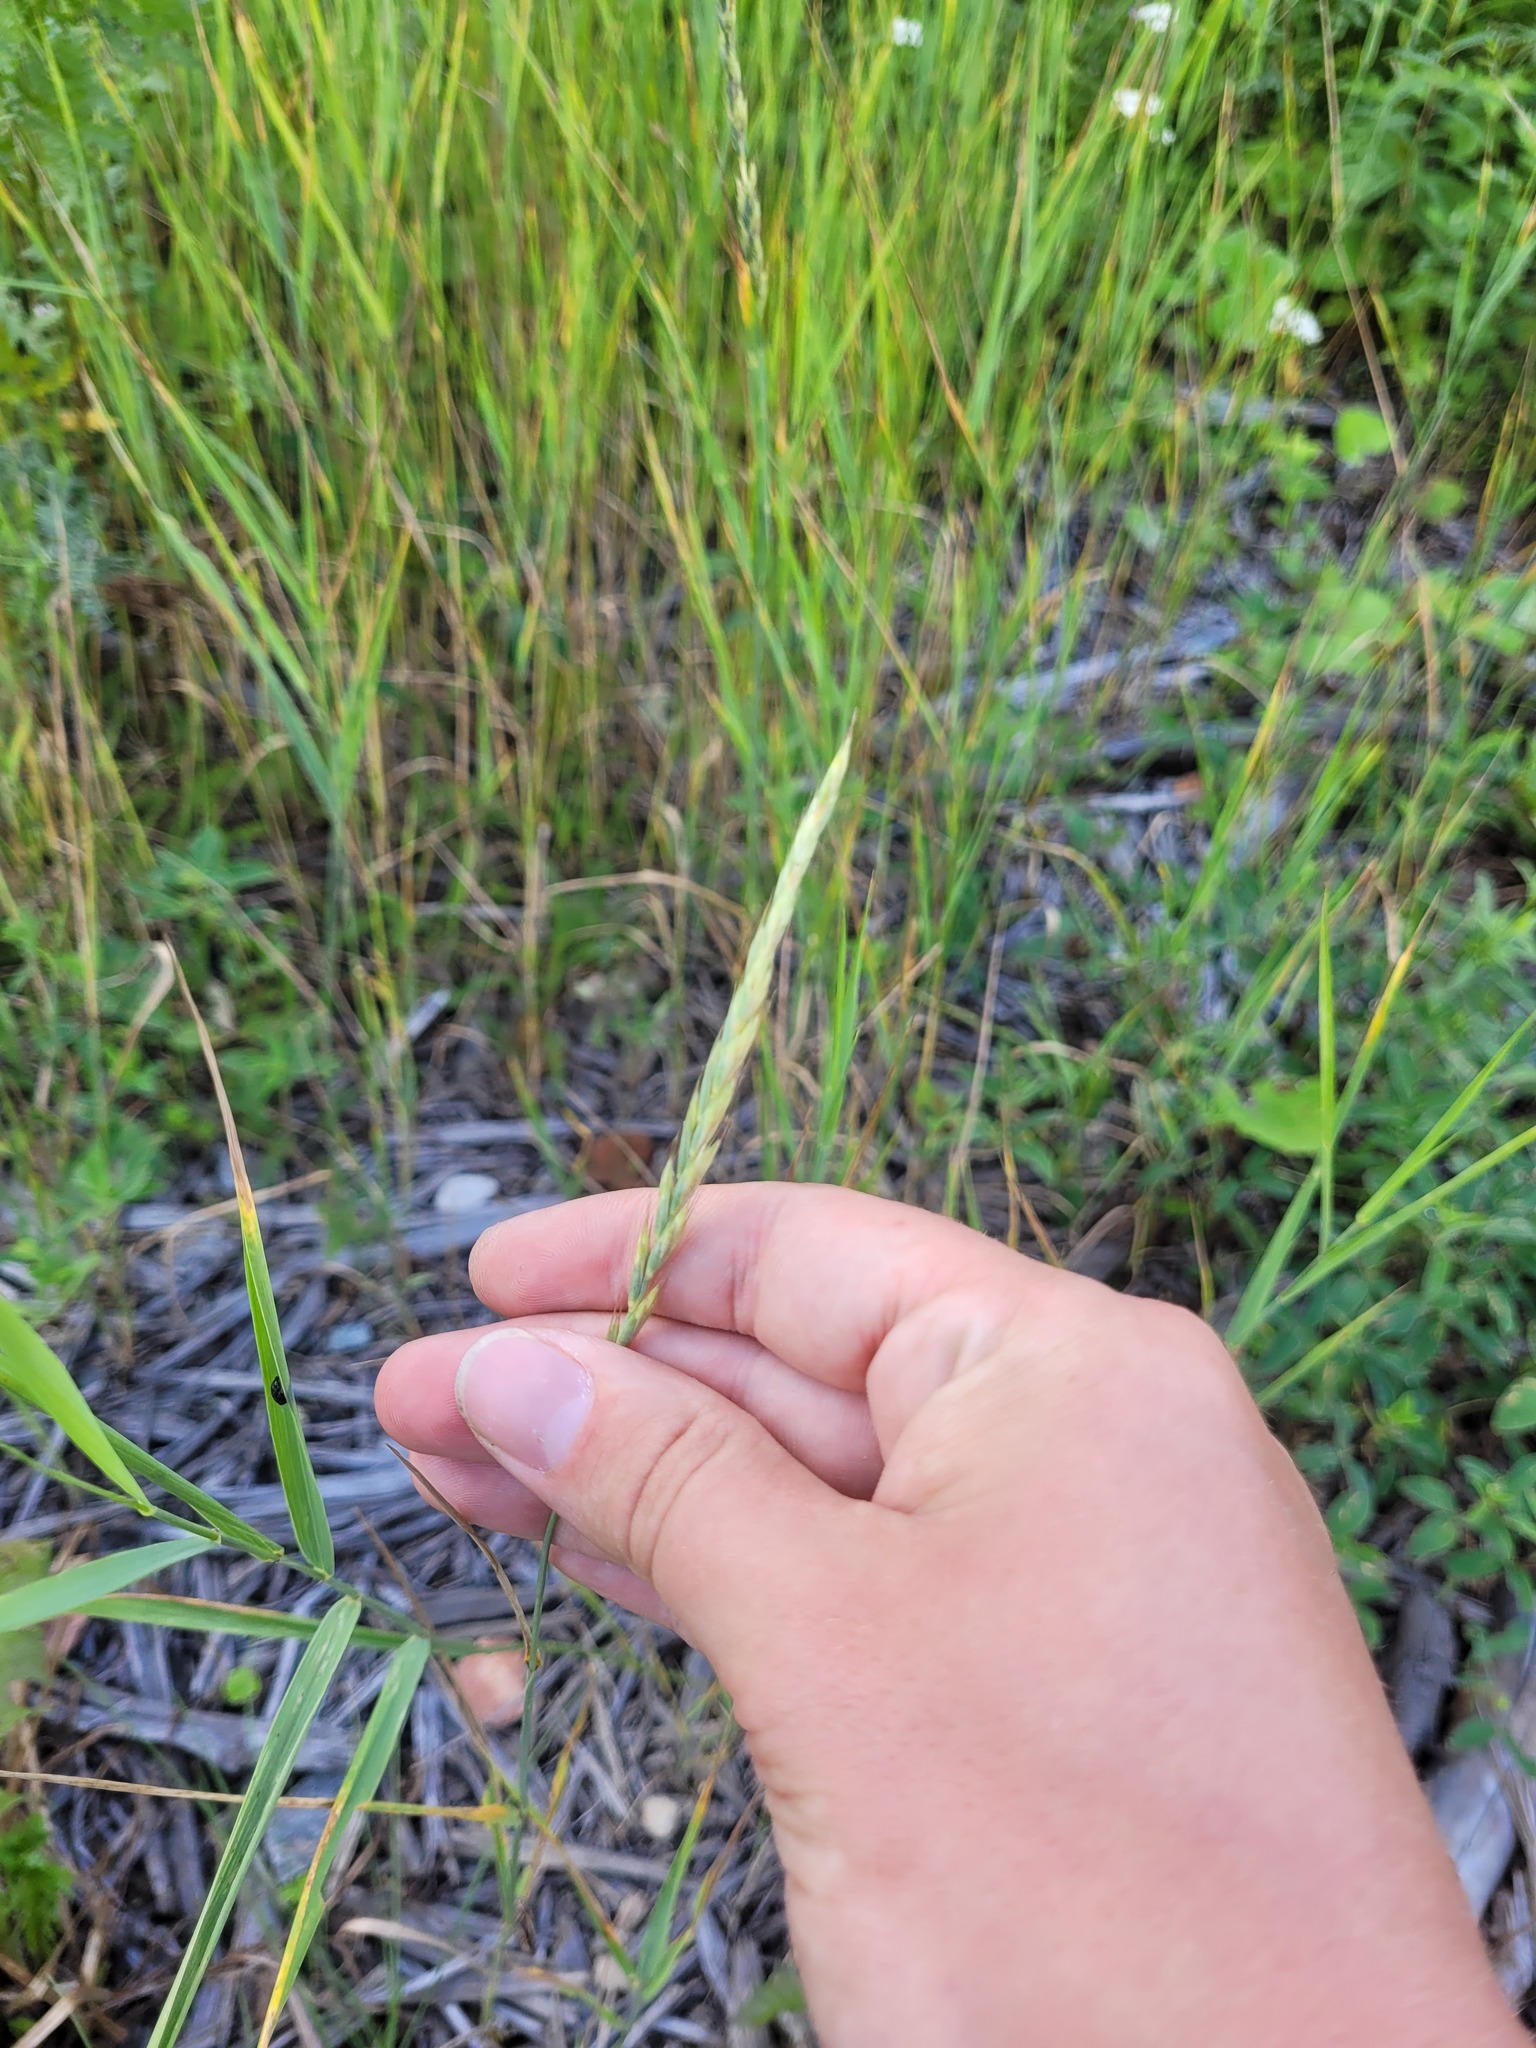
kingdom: Plantae
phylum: Tracheophyta
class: Liliopsida
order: Poales
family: Poaceae
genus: Elymus
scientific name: Elymus repens
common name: Quackgrass
